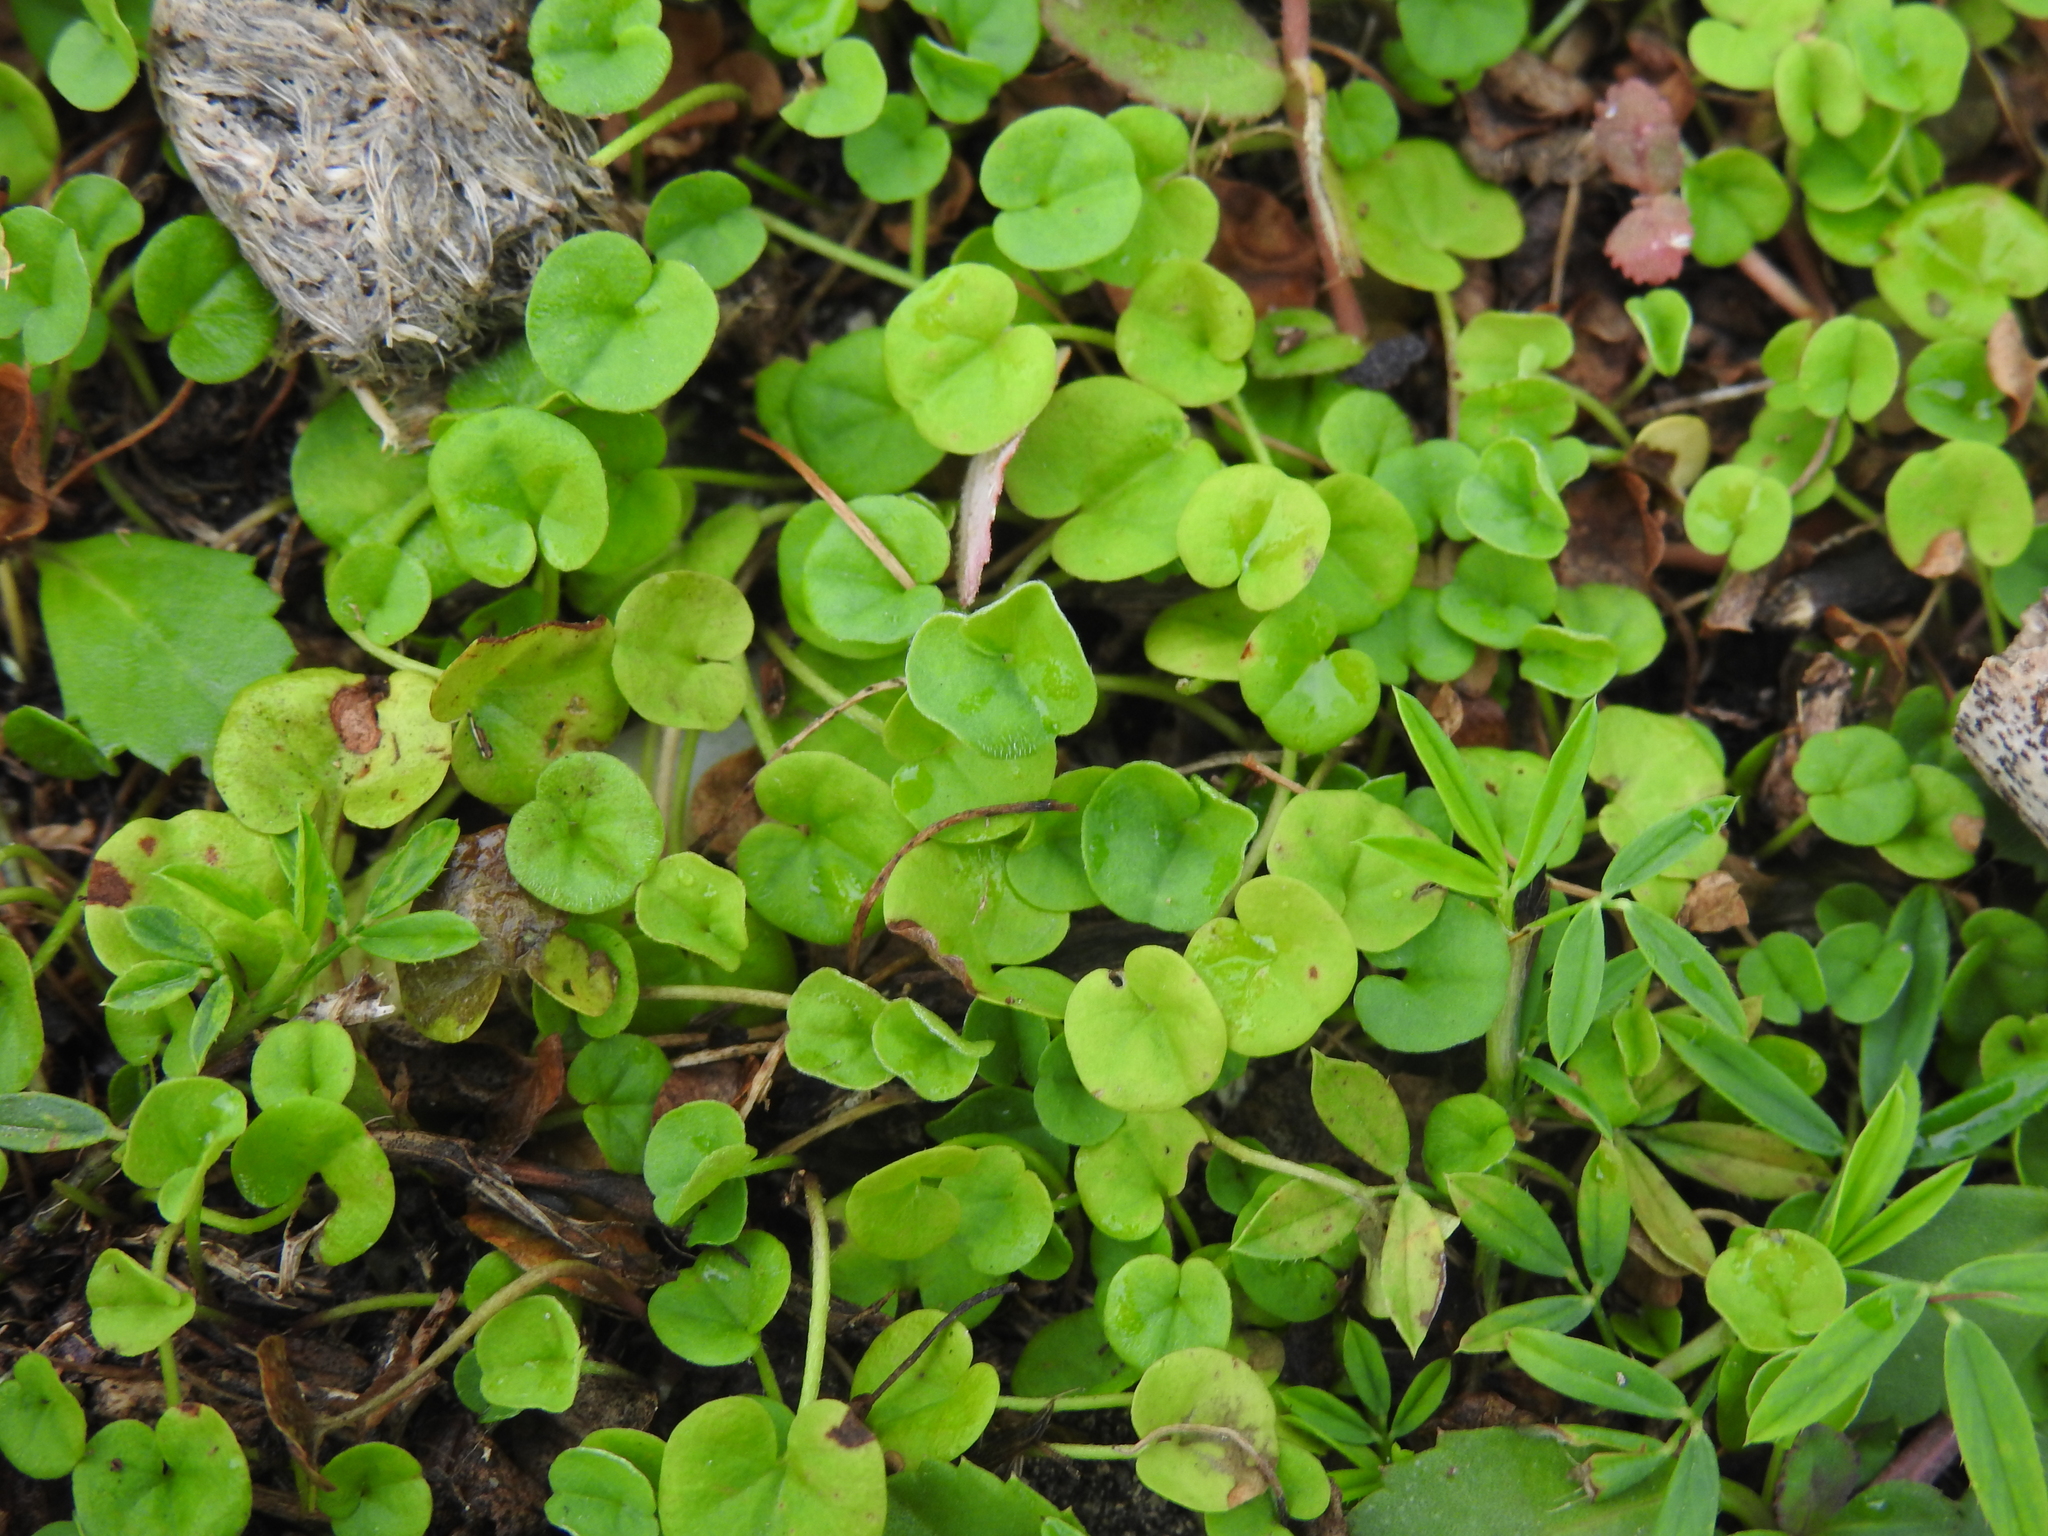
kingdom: Plantae
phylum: Tracheophyta
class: Magnoliopsida
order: Solanales
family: Convolvulaceae
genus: Dichondra
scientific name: Dichondra carolinensis
